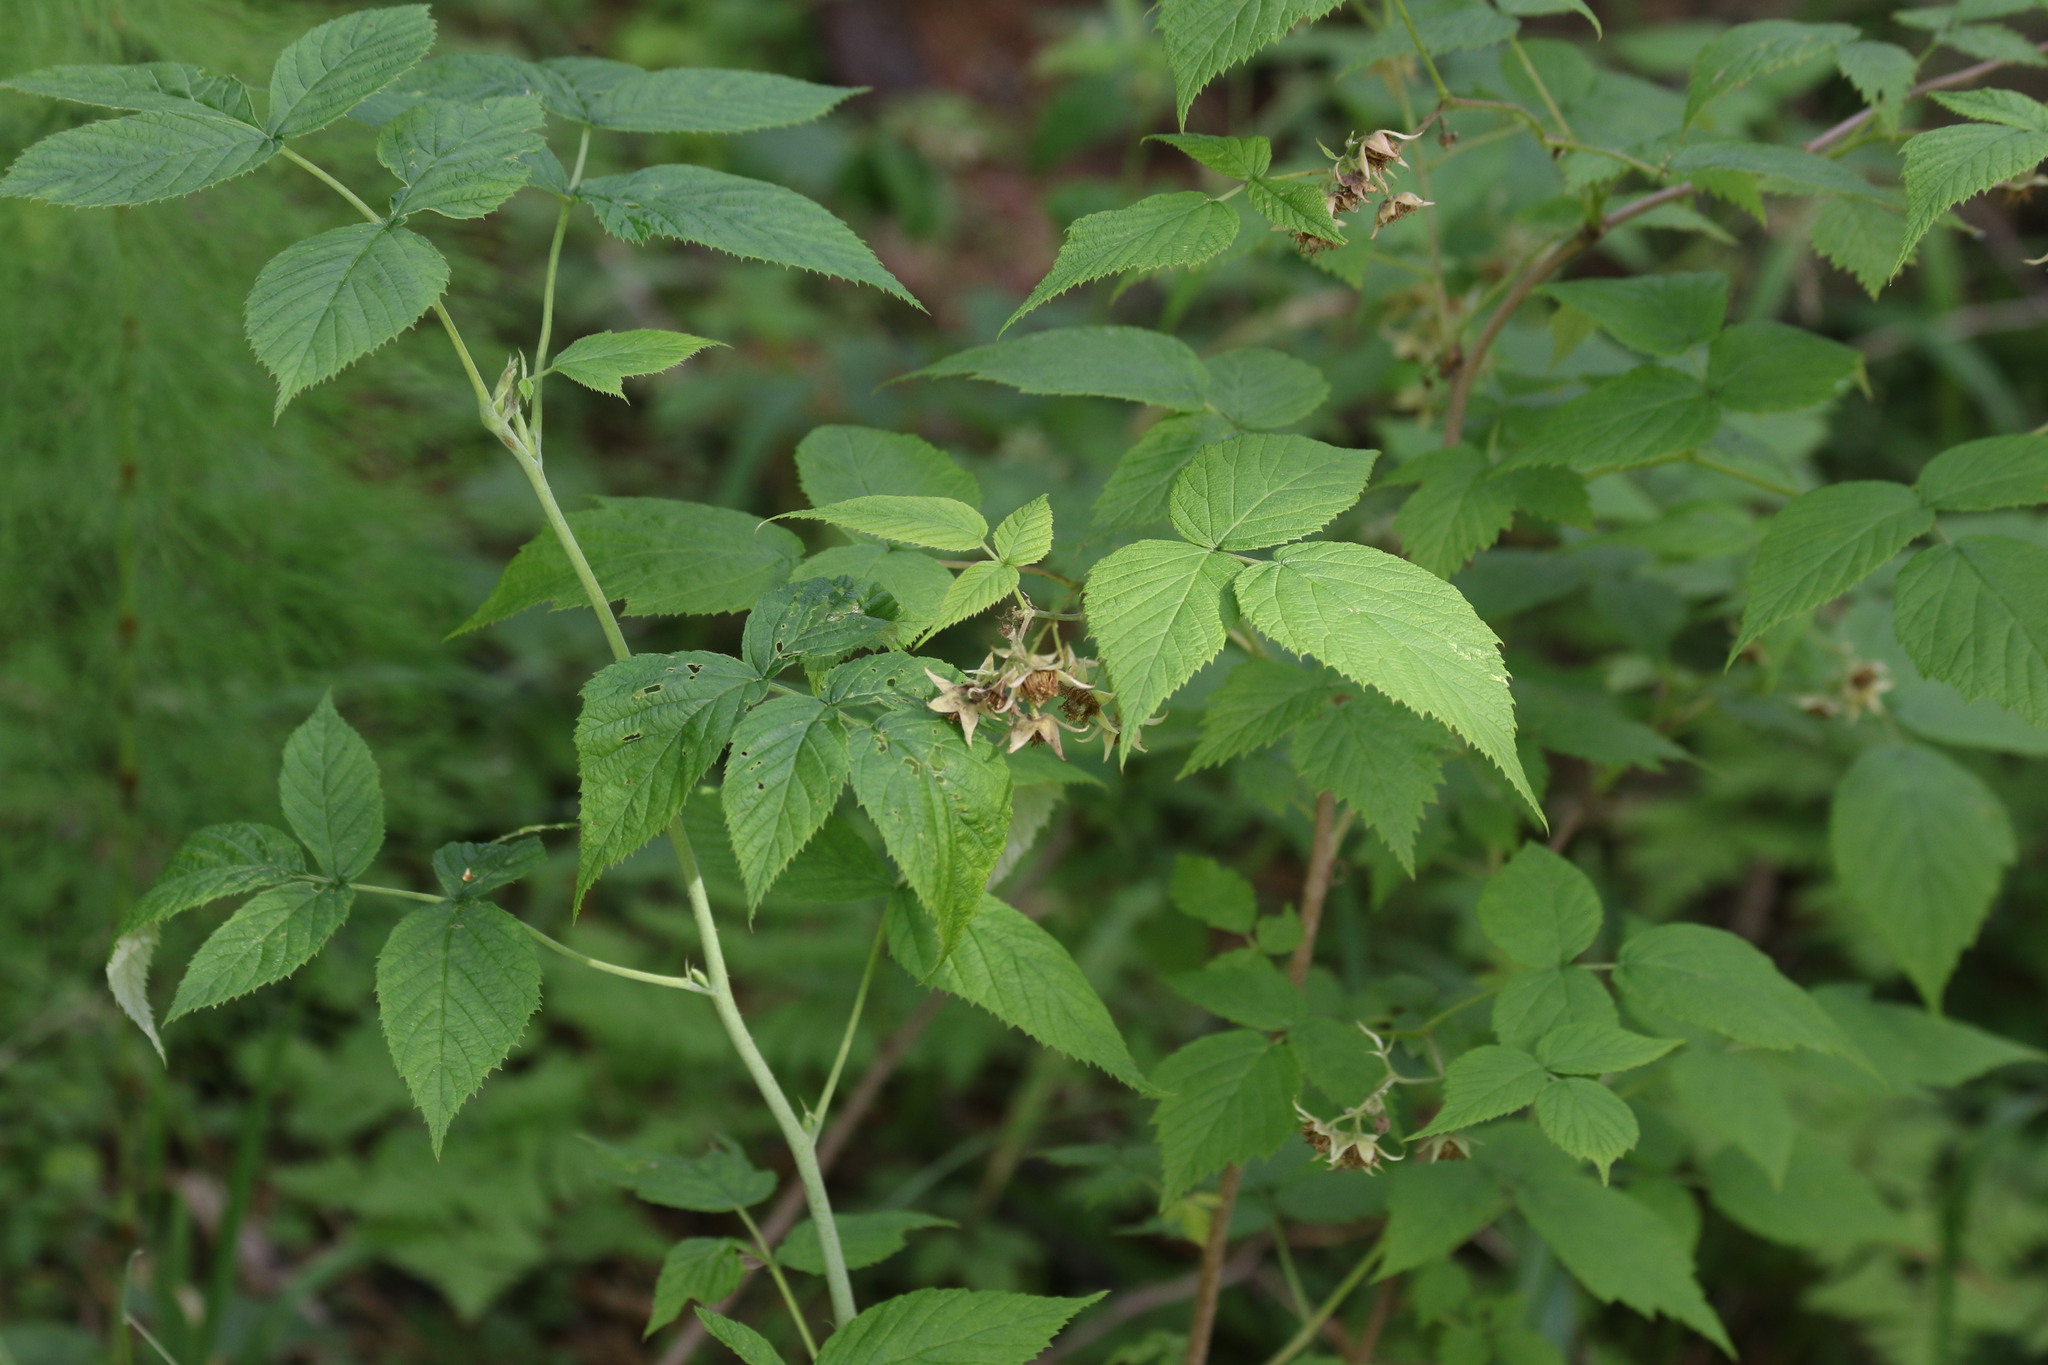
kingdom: Plantae
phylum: Tracheophyta
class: Magnoliopsida
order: Rosales
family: Rosaceae
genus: Rubus
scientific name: Rubus idaeus
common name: Raspberry
